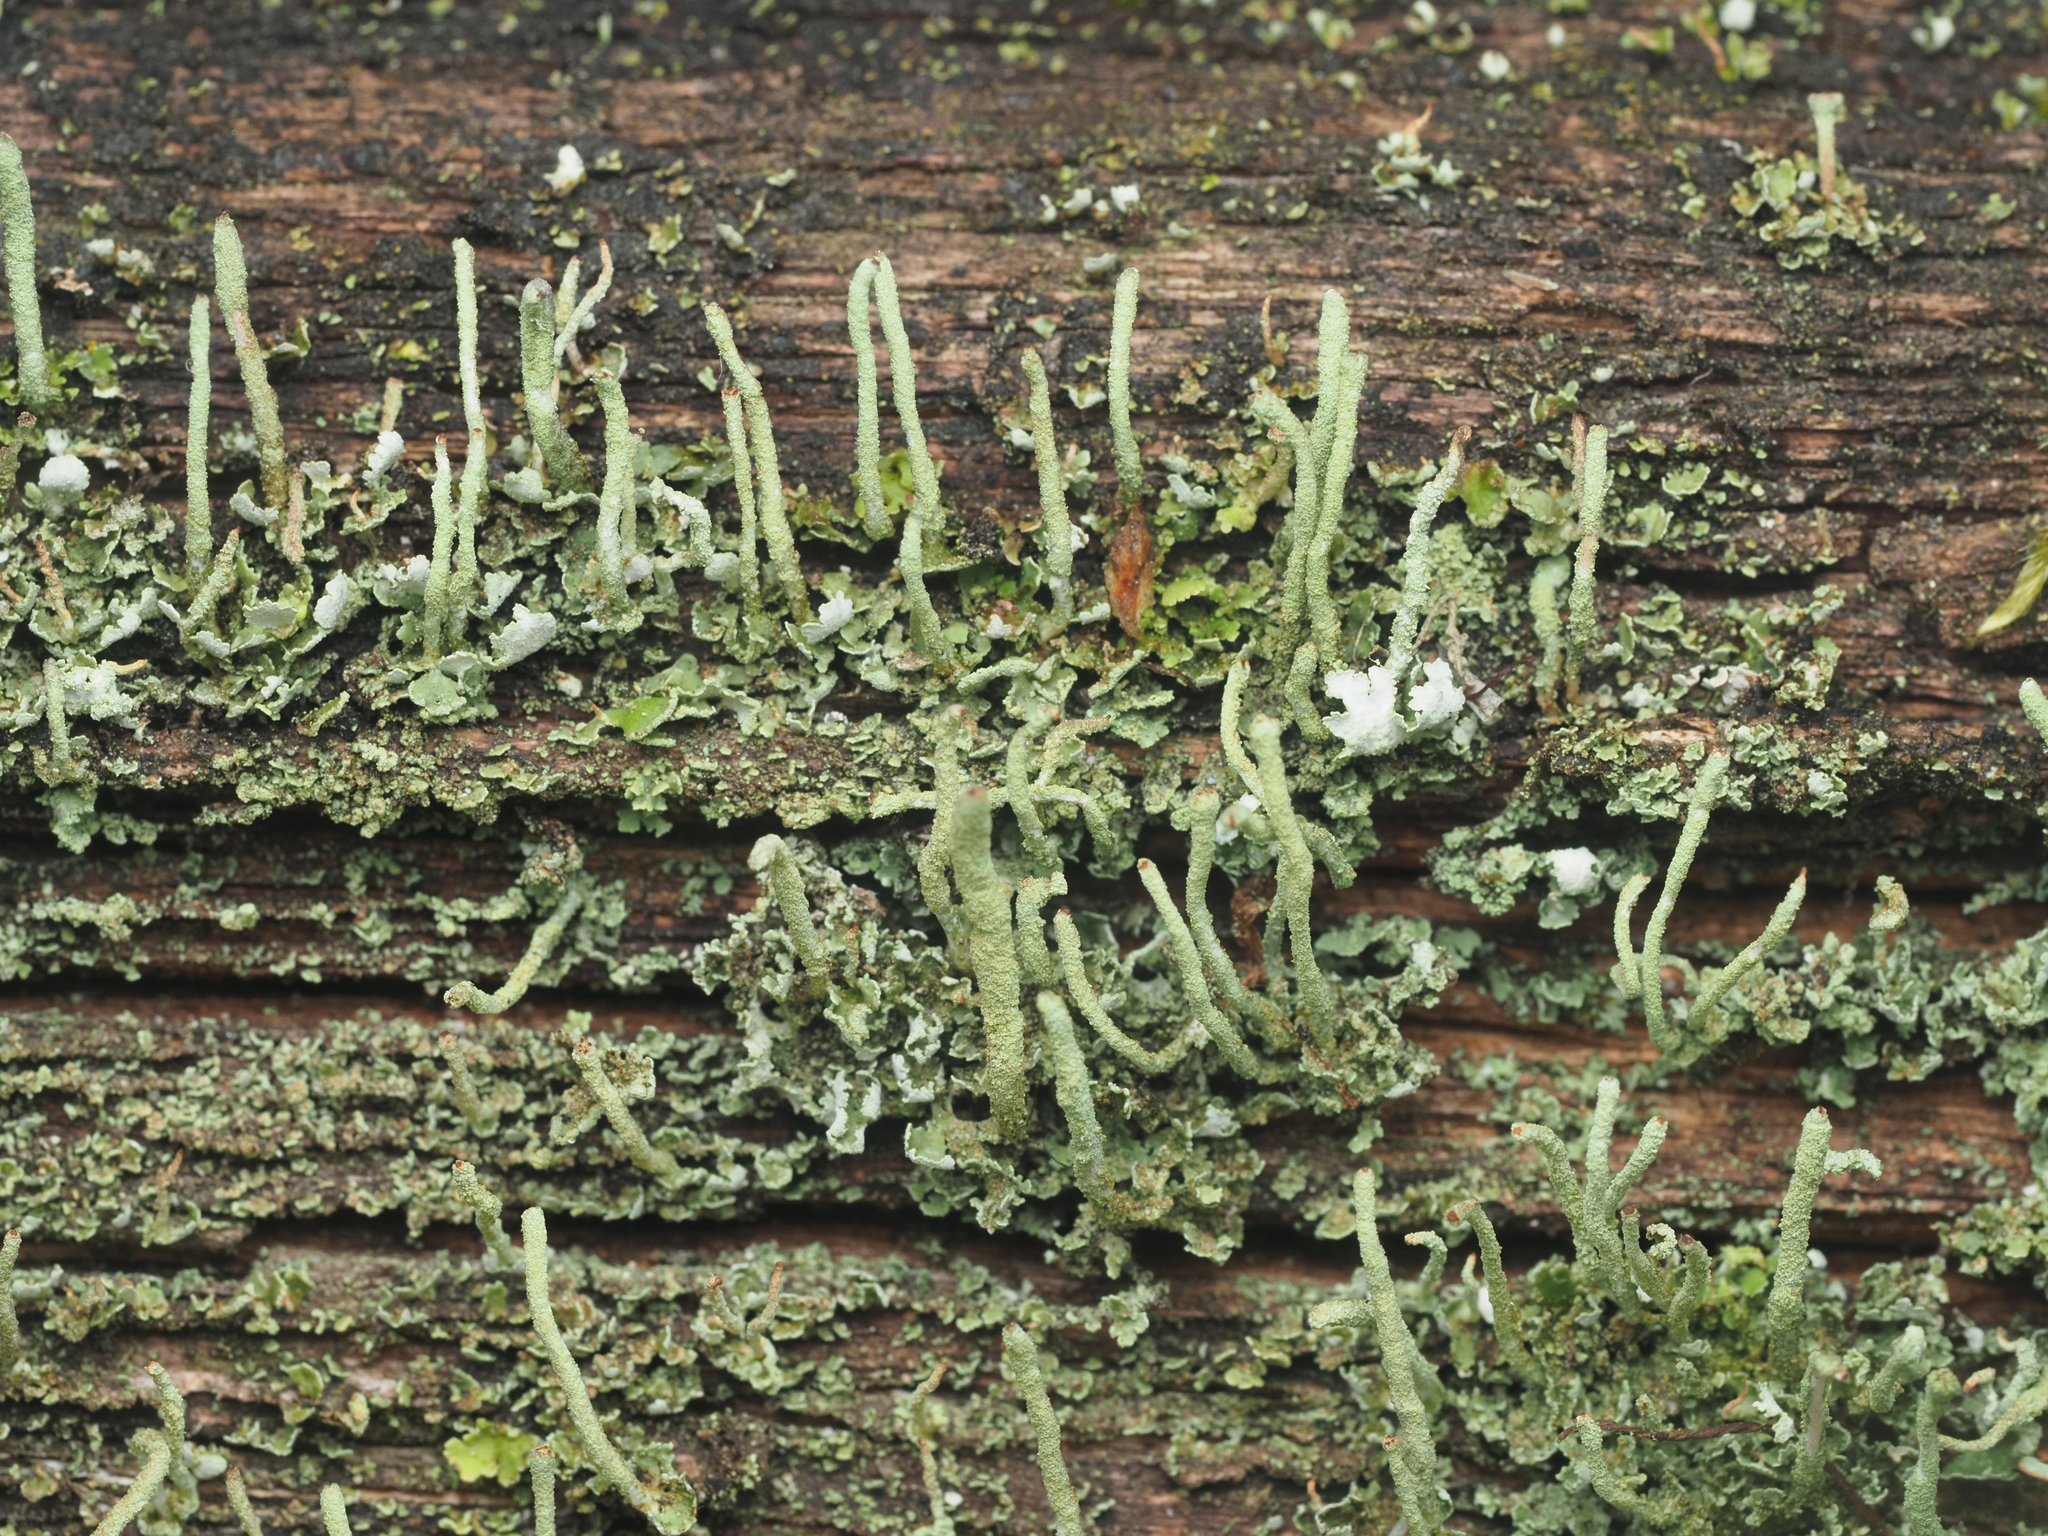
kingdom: Fungi
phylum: Ascomycota
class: Lecanoromycetes
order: Lecanorales
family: Cladoniaceae
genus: Cladonia
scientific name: Cladonia coniocraea
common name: Common powderhorn
